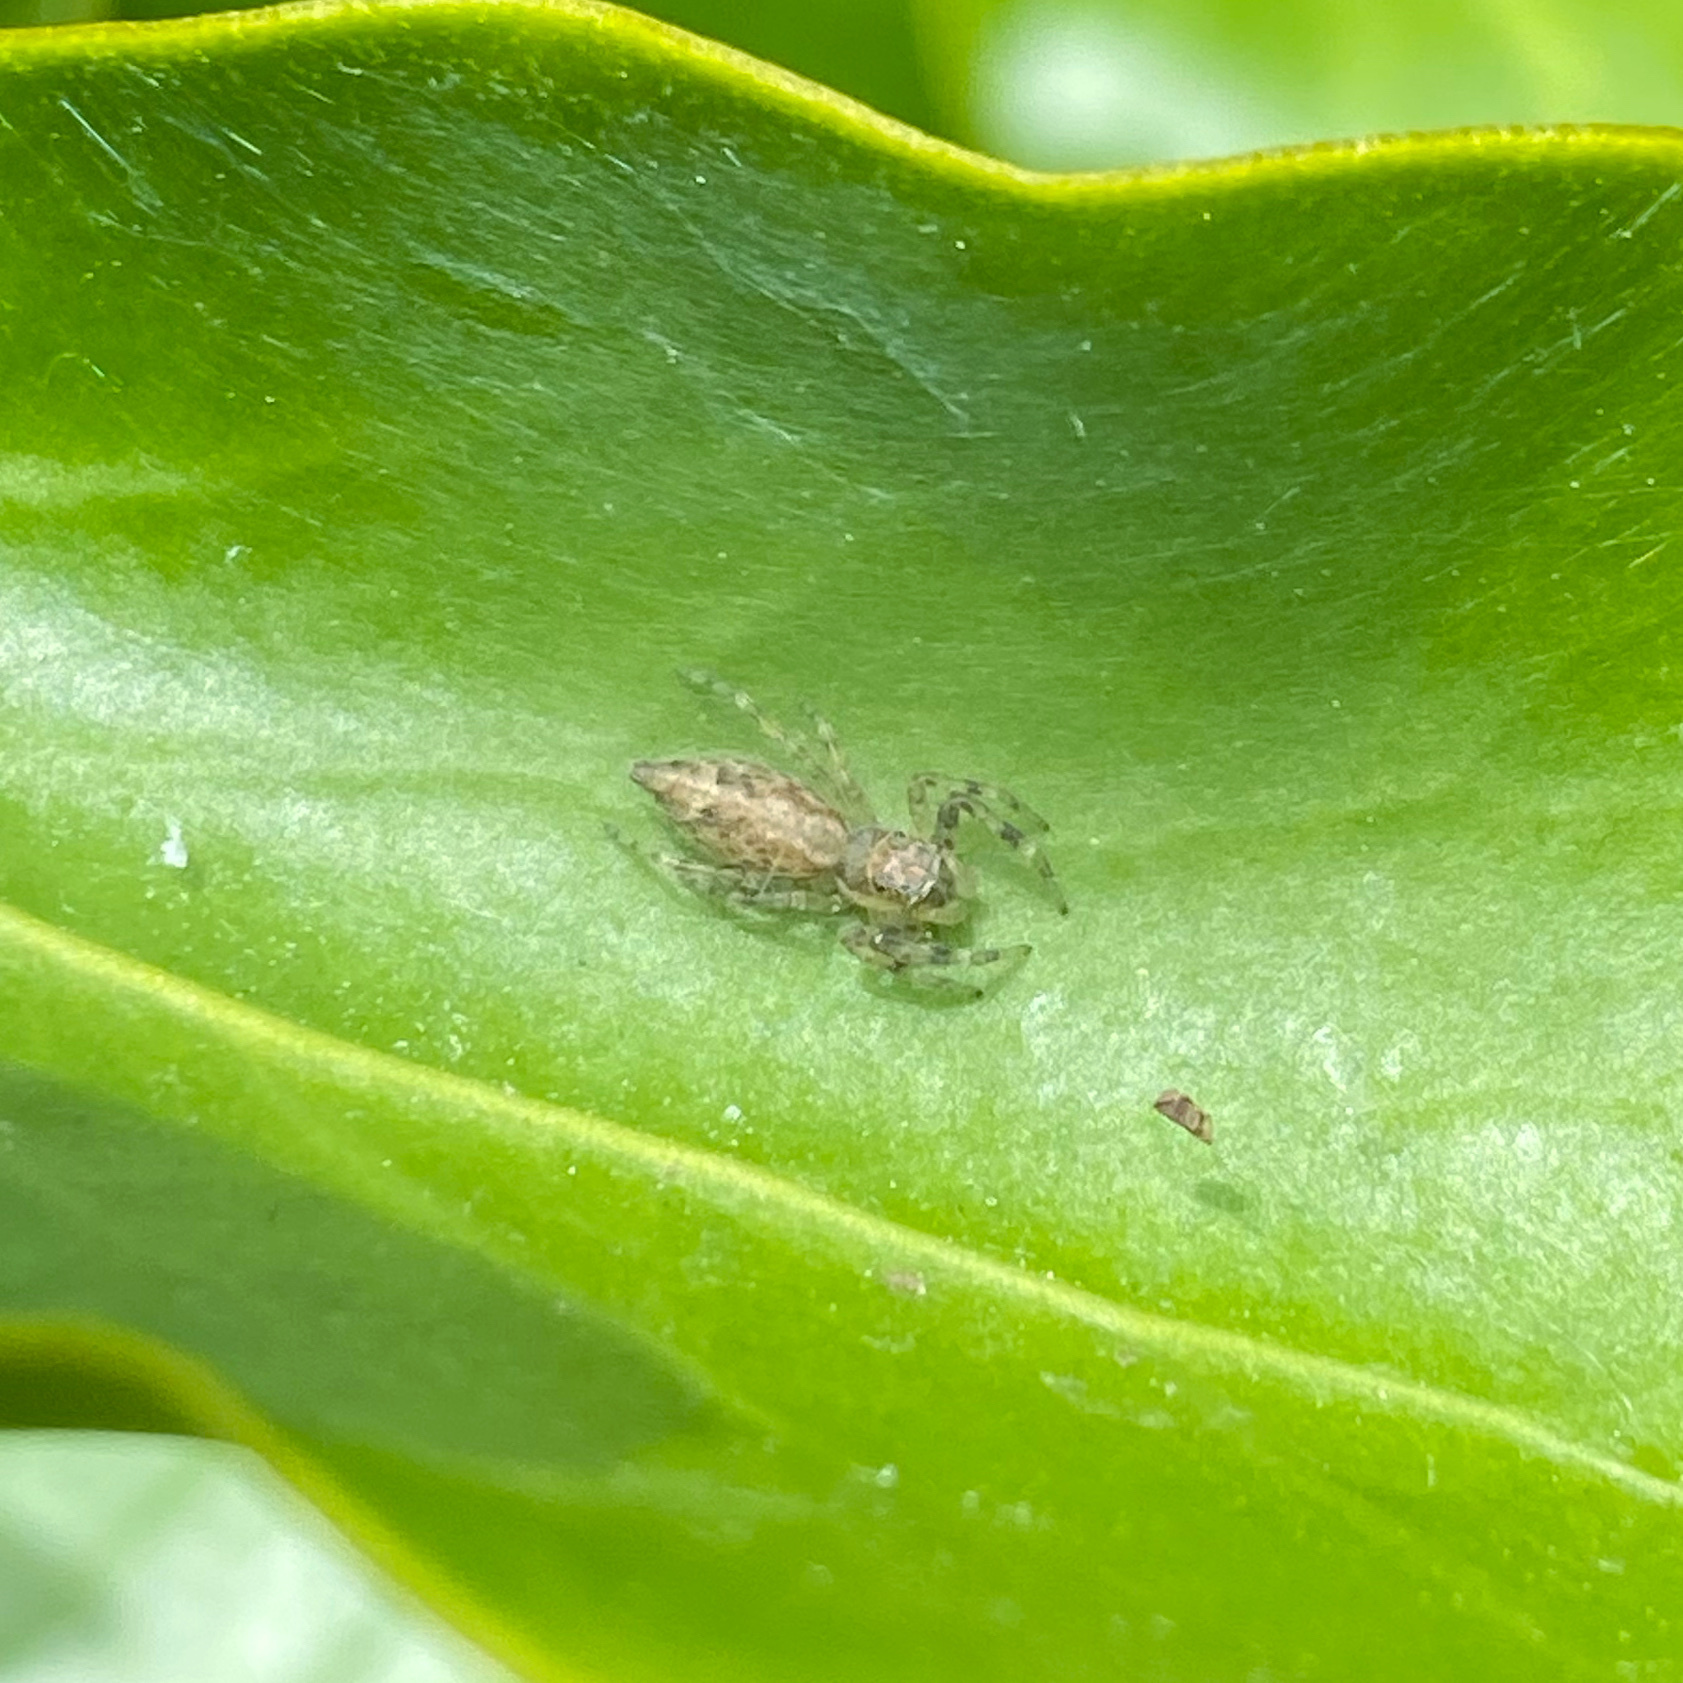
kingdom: Animalia
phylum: Arthropoda
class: Arachnida
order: Araneae
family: Salticidae
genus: Helpis
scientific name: Helpis minitabunda
